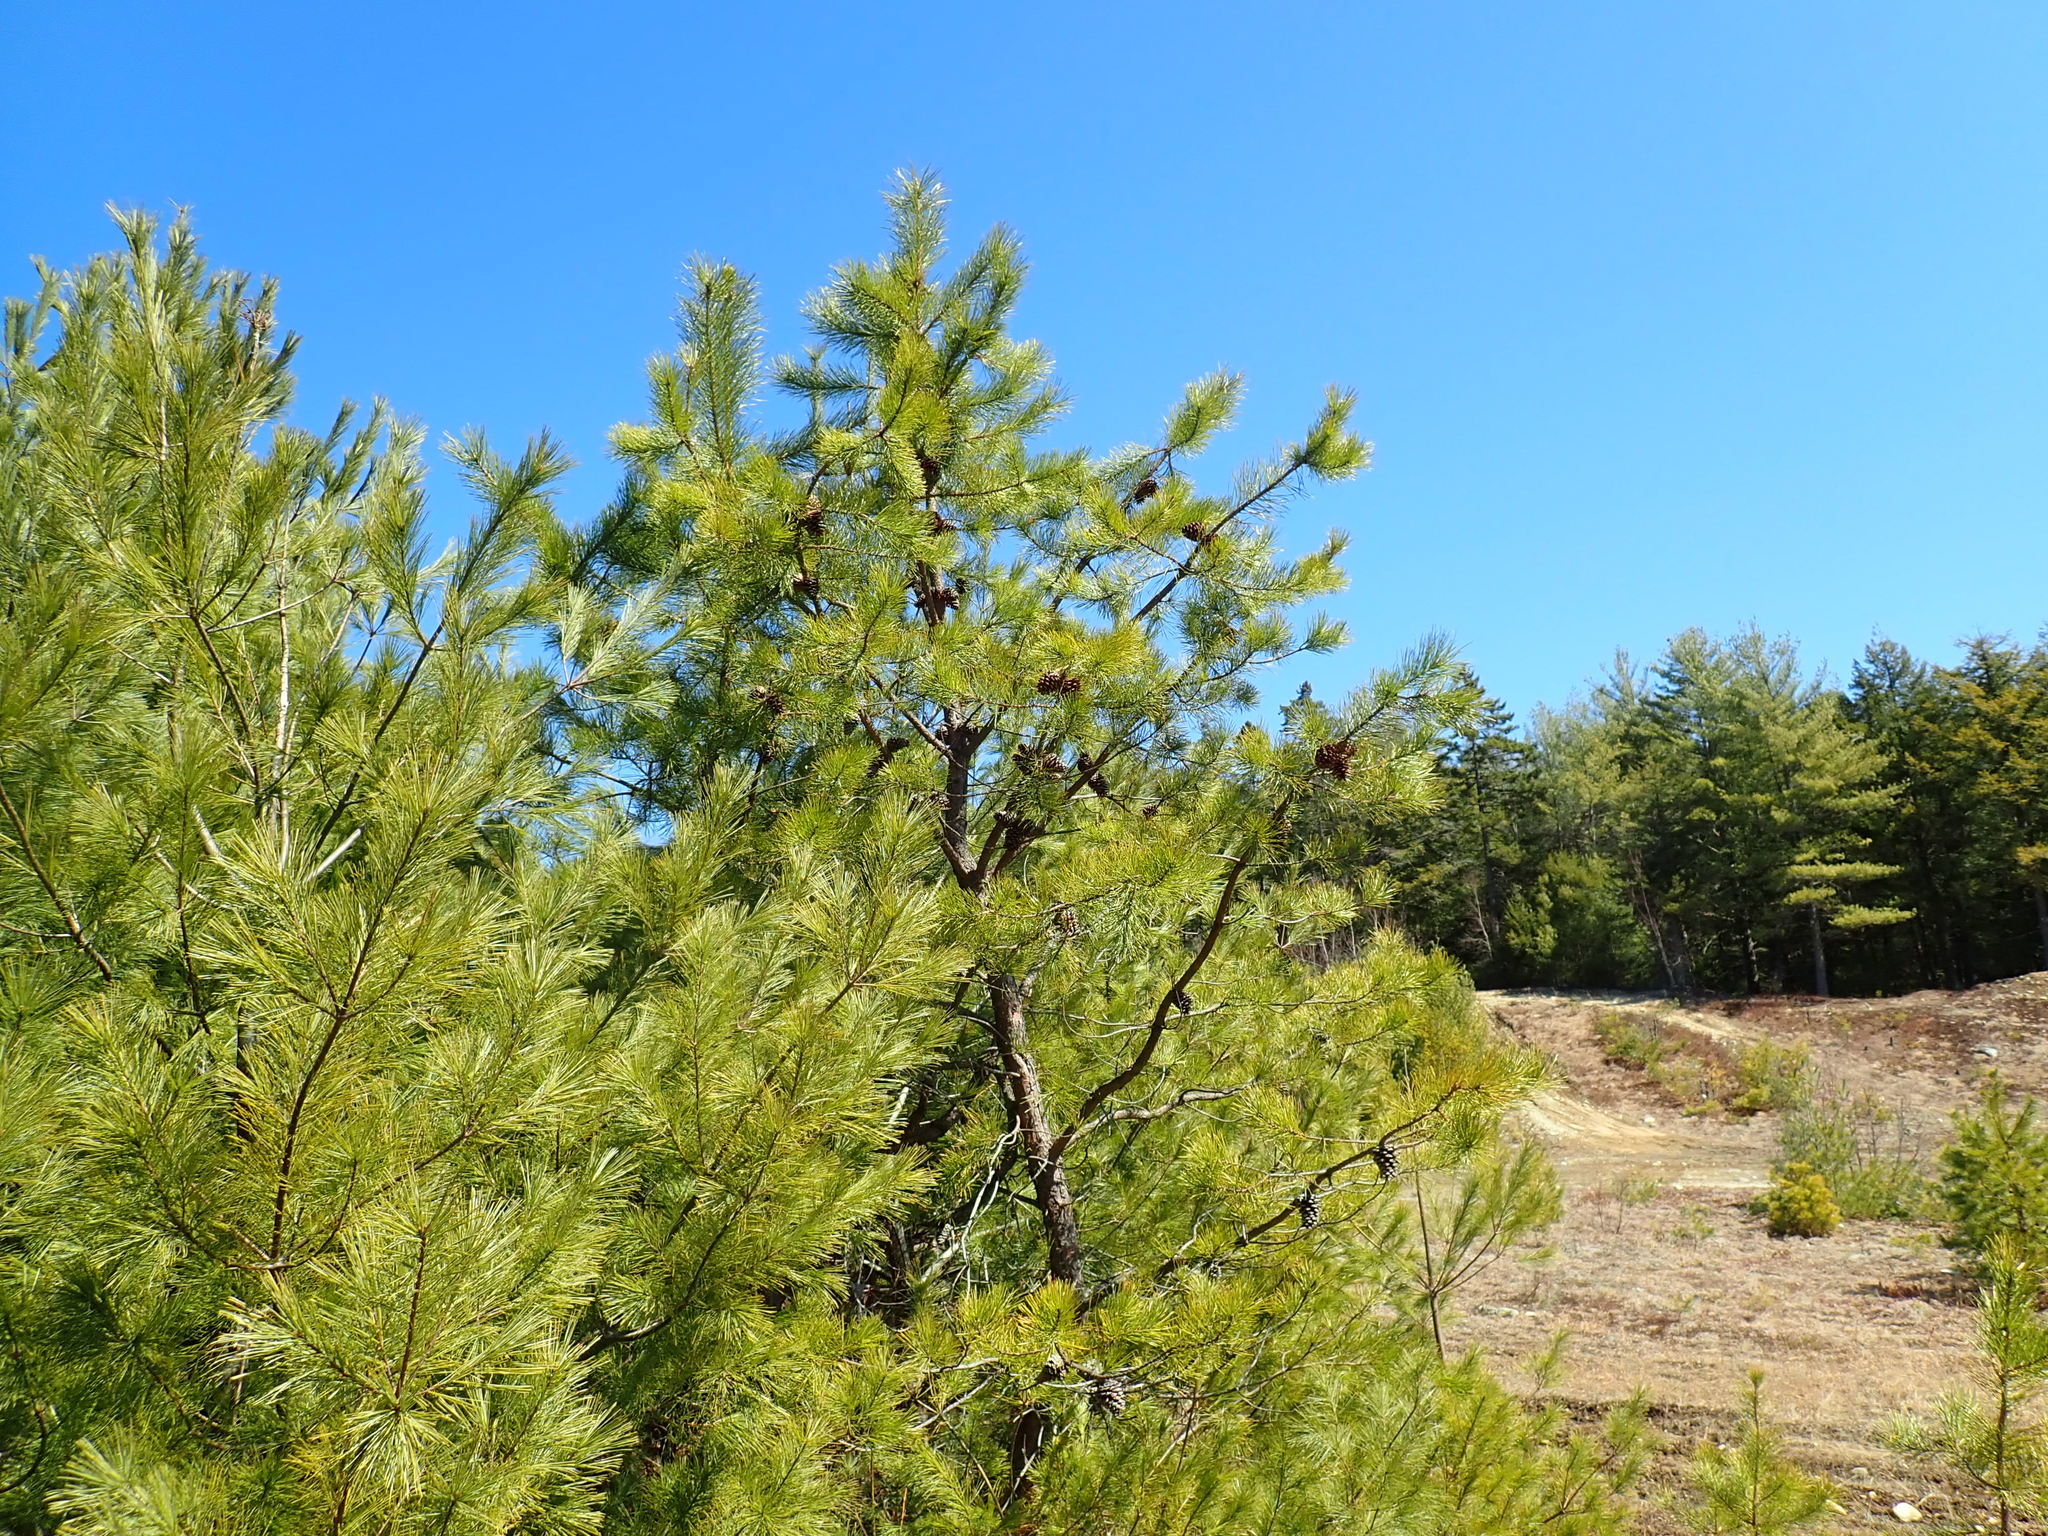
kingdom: Plantae
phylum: Tracheophyta
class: Pinopsida
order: Pinales
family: Pinaceae
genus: Pinus
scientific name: Pinus rigida
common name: Pitch pine
